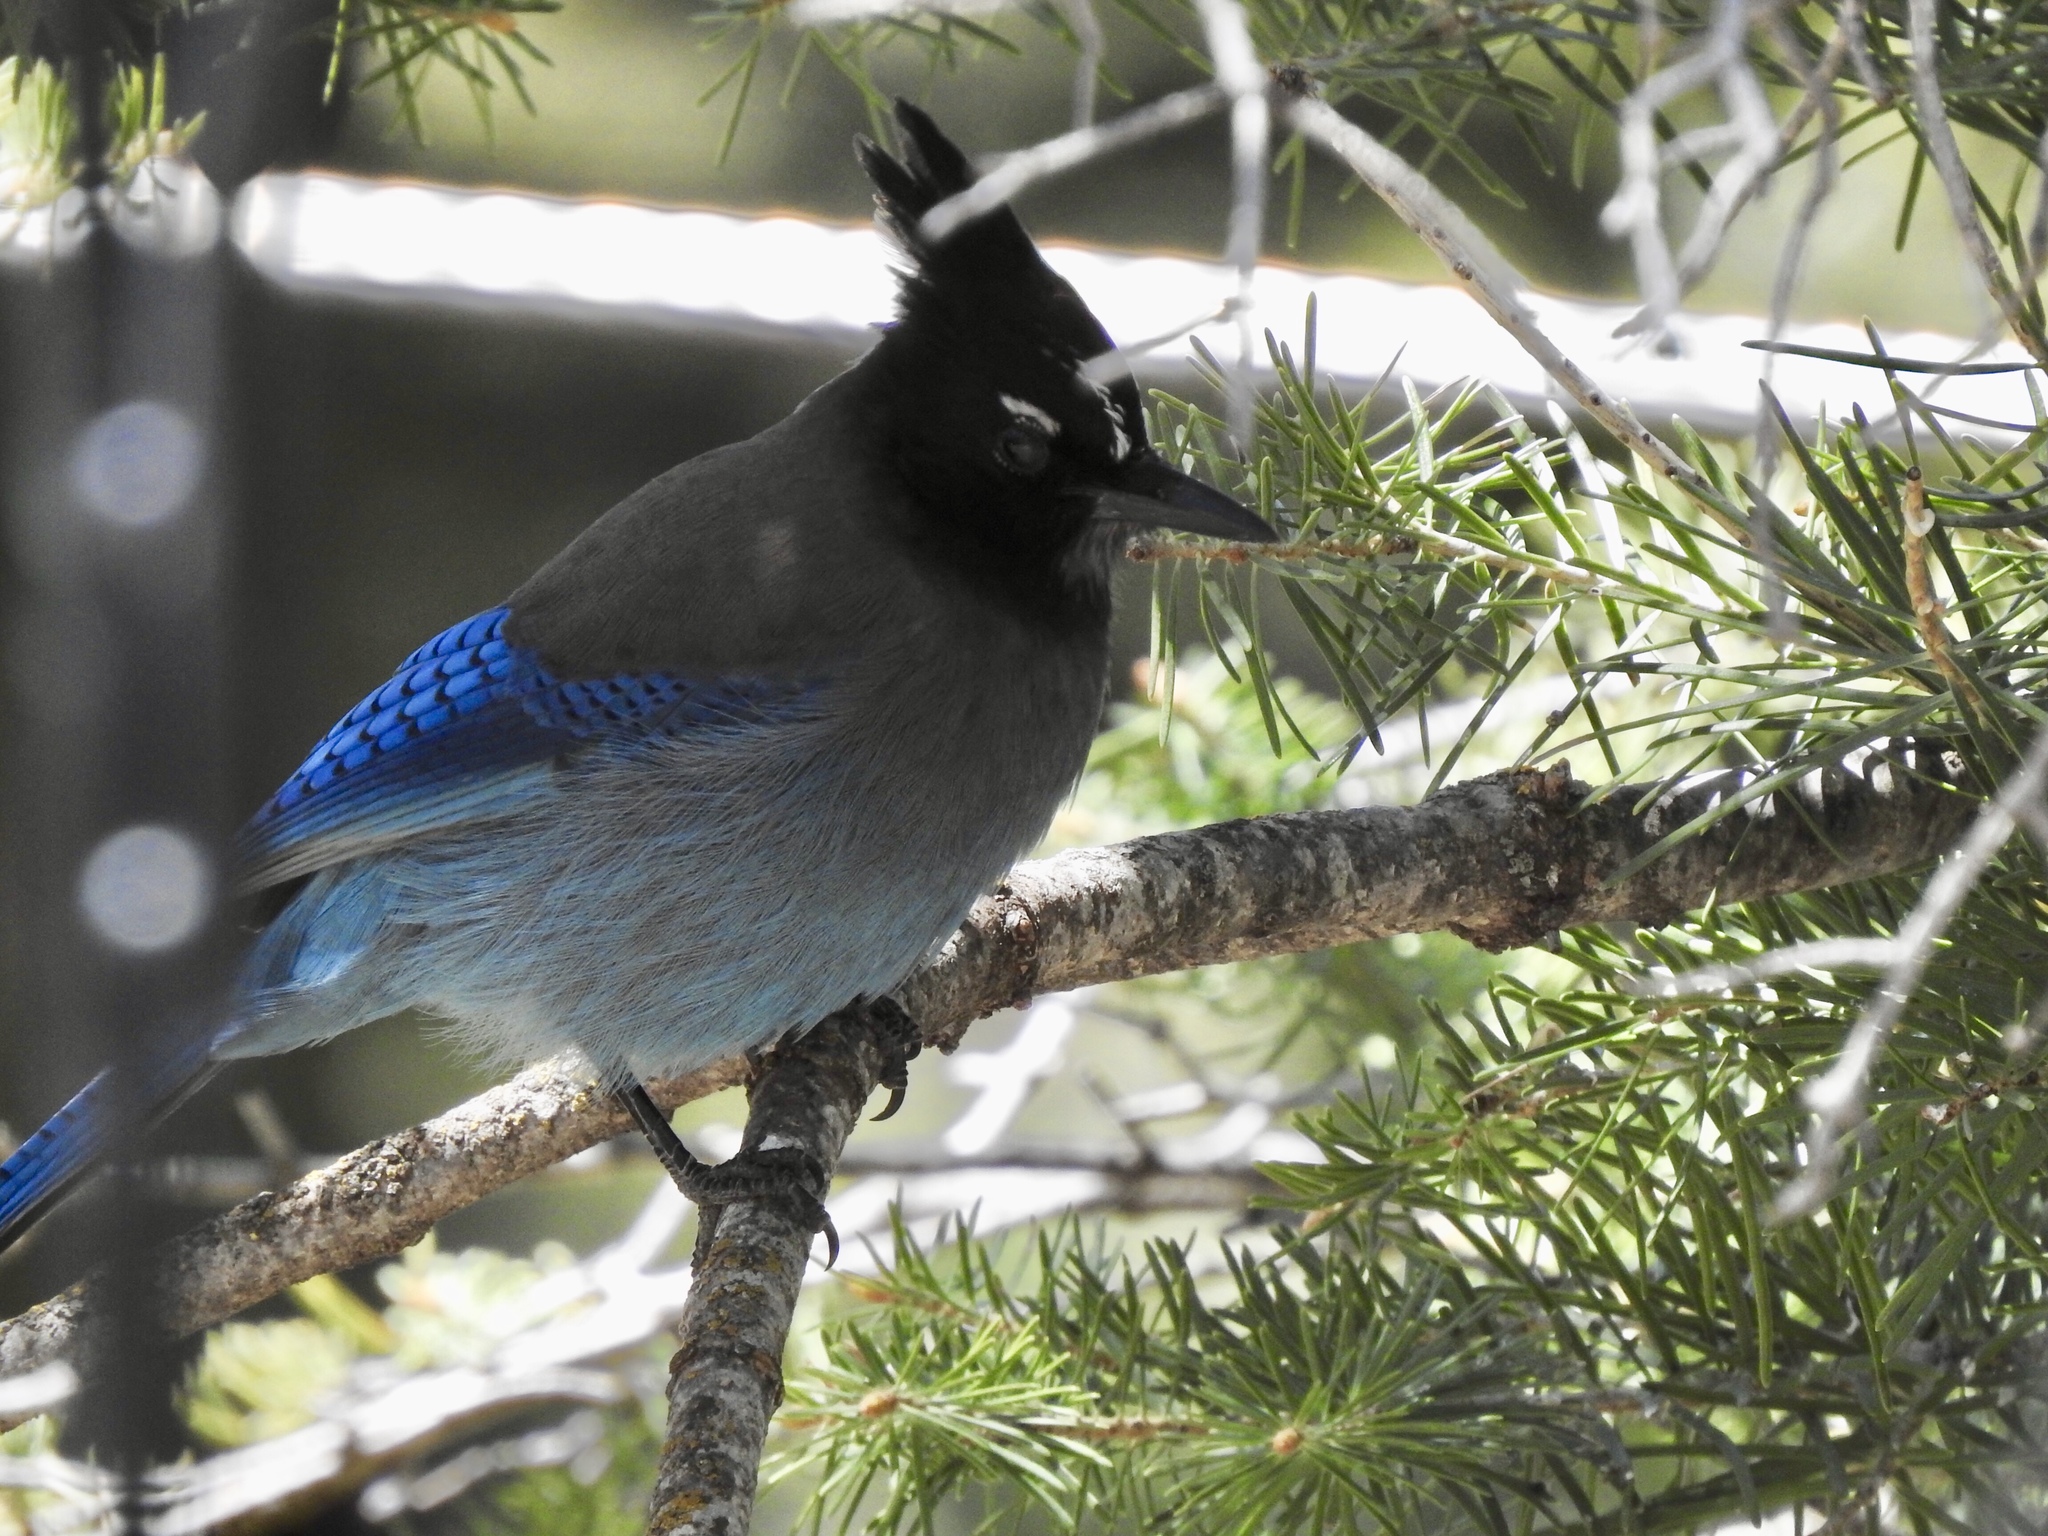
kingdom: Animalia
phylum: Chordata
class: Aves
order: Passeriformes
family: Corvidae
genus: Cyanocitta
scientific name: Cyanocitta stelleri
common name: Steller's jay
